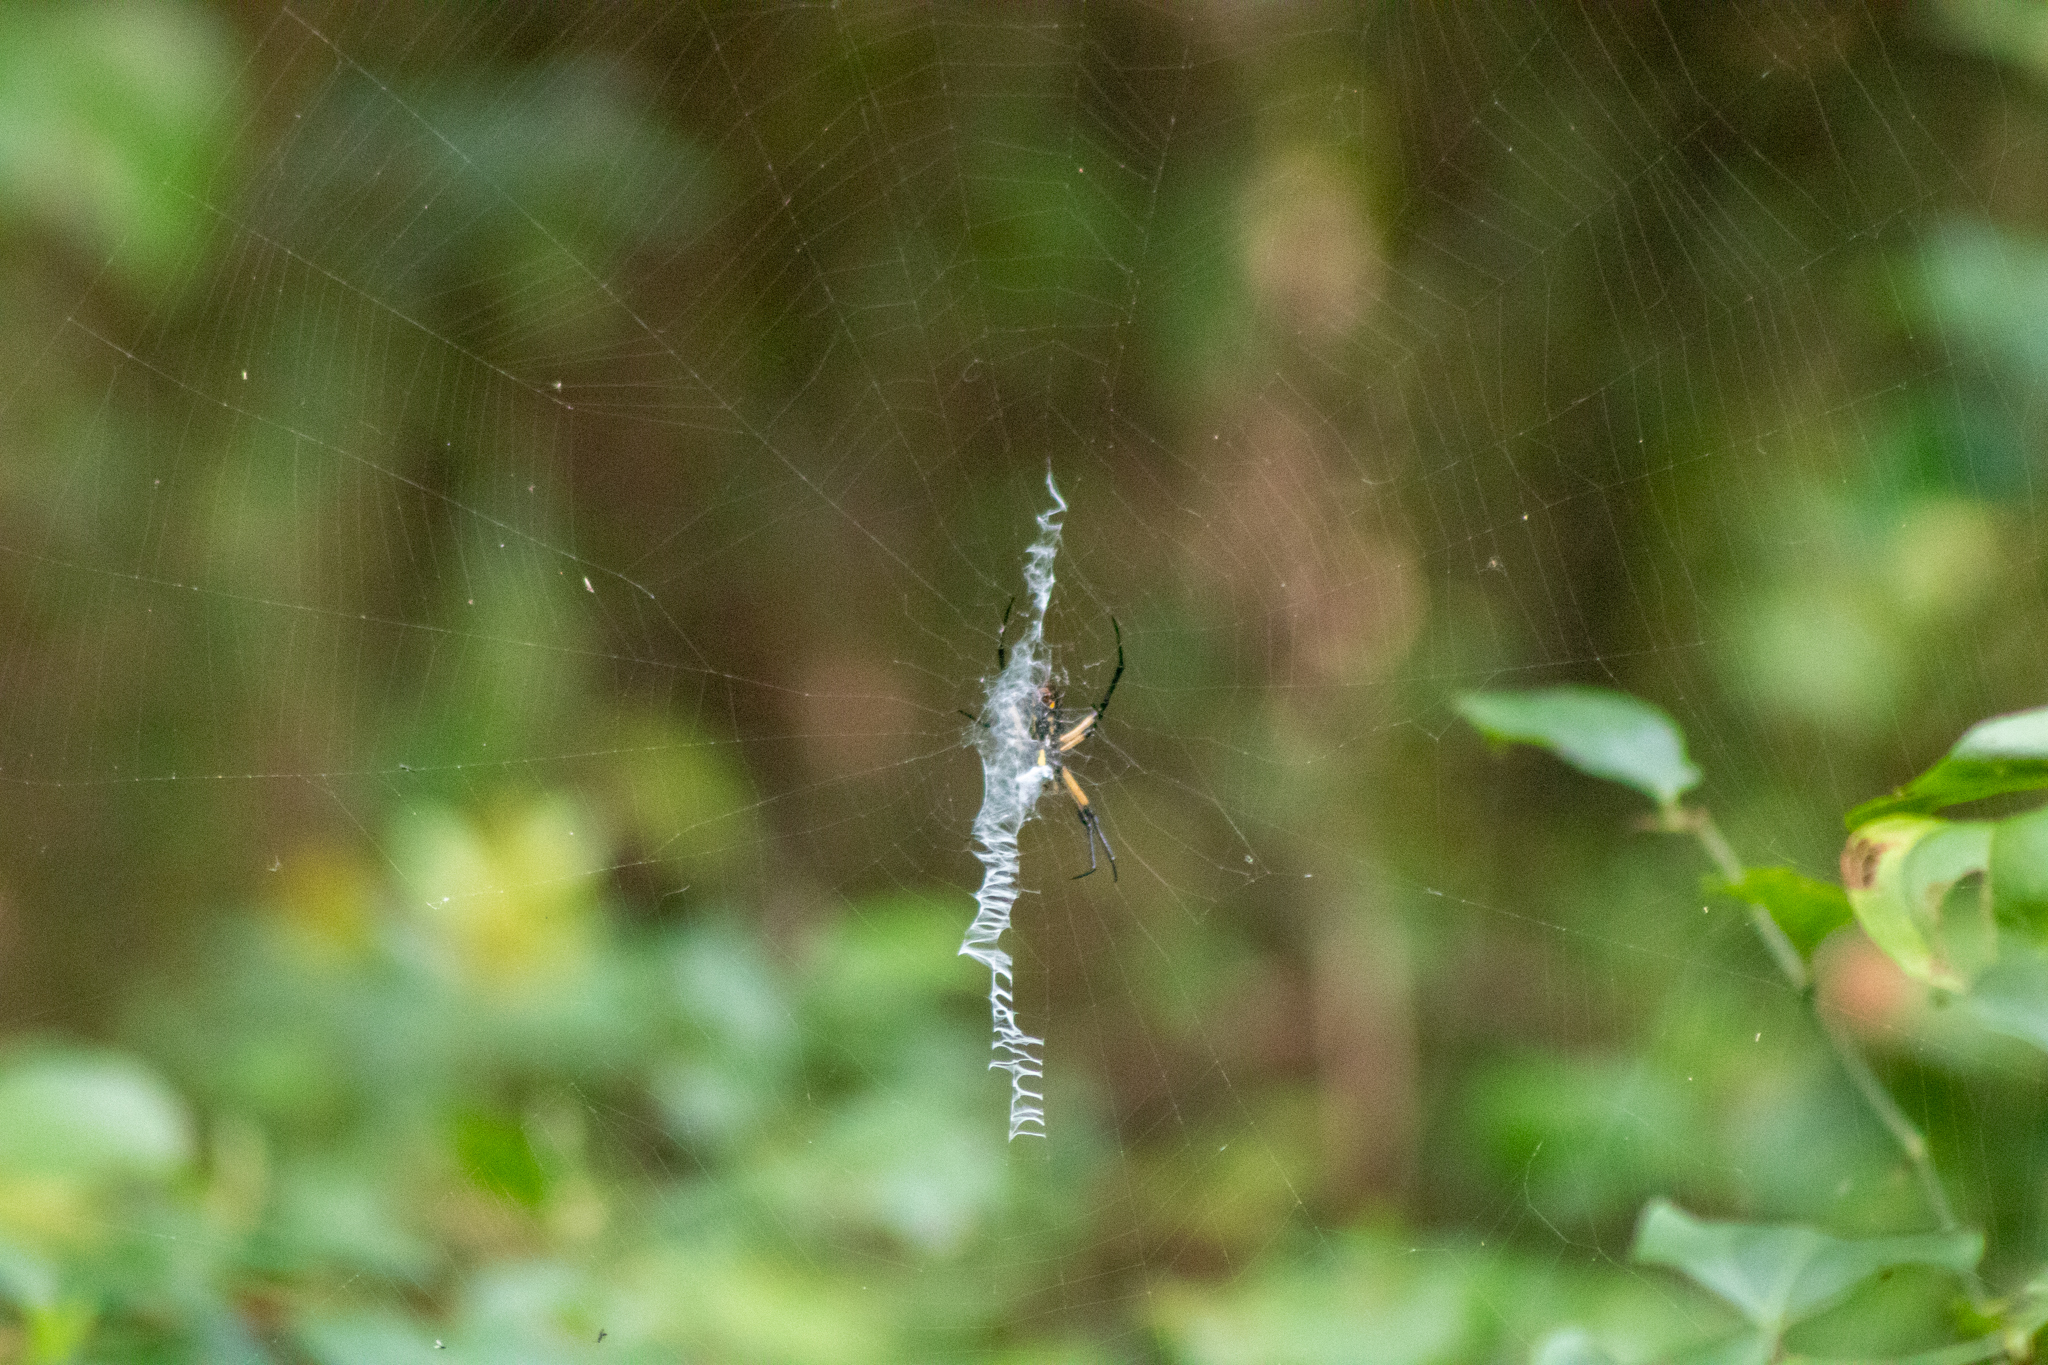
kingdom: Animalia
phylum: Arthropoda
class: Arachnida
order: Araneae
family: Araneidae
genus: Argiope
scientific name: Argiope aurantia
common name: Orb weavers
